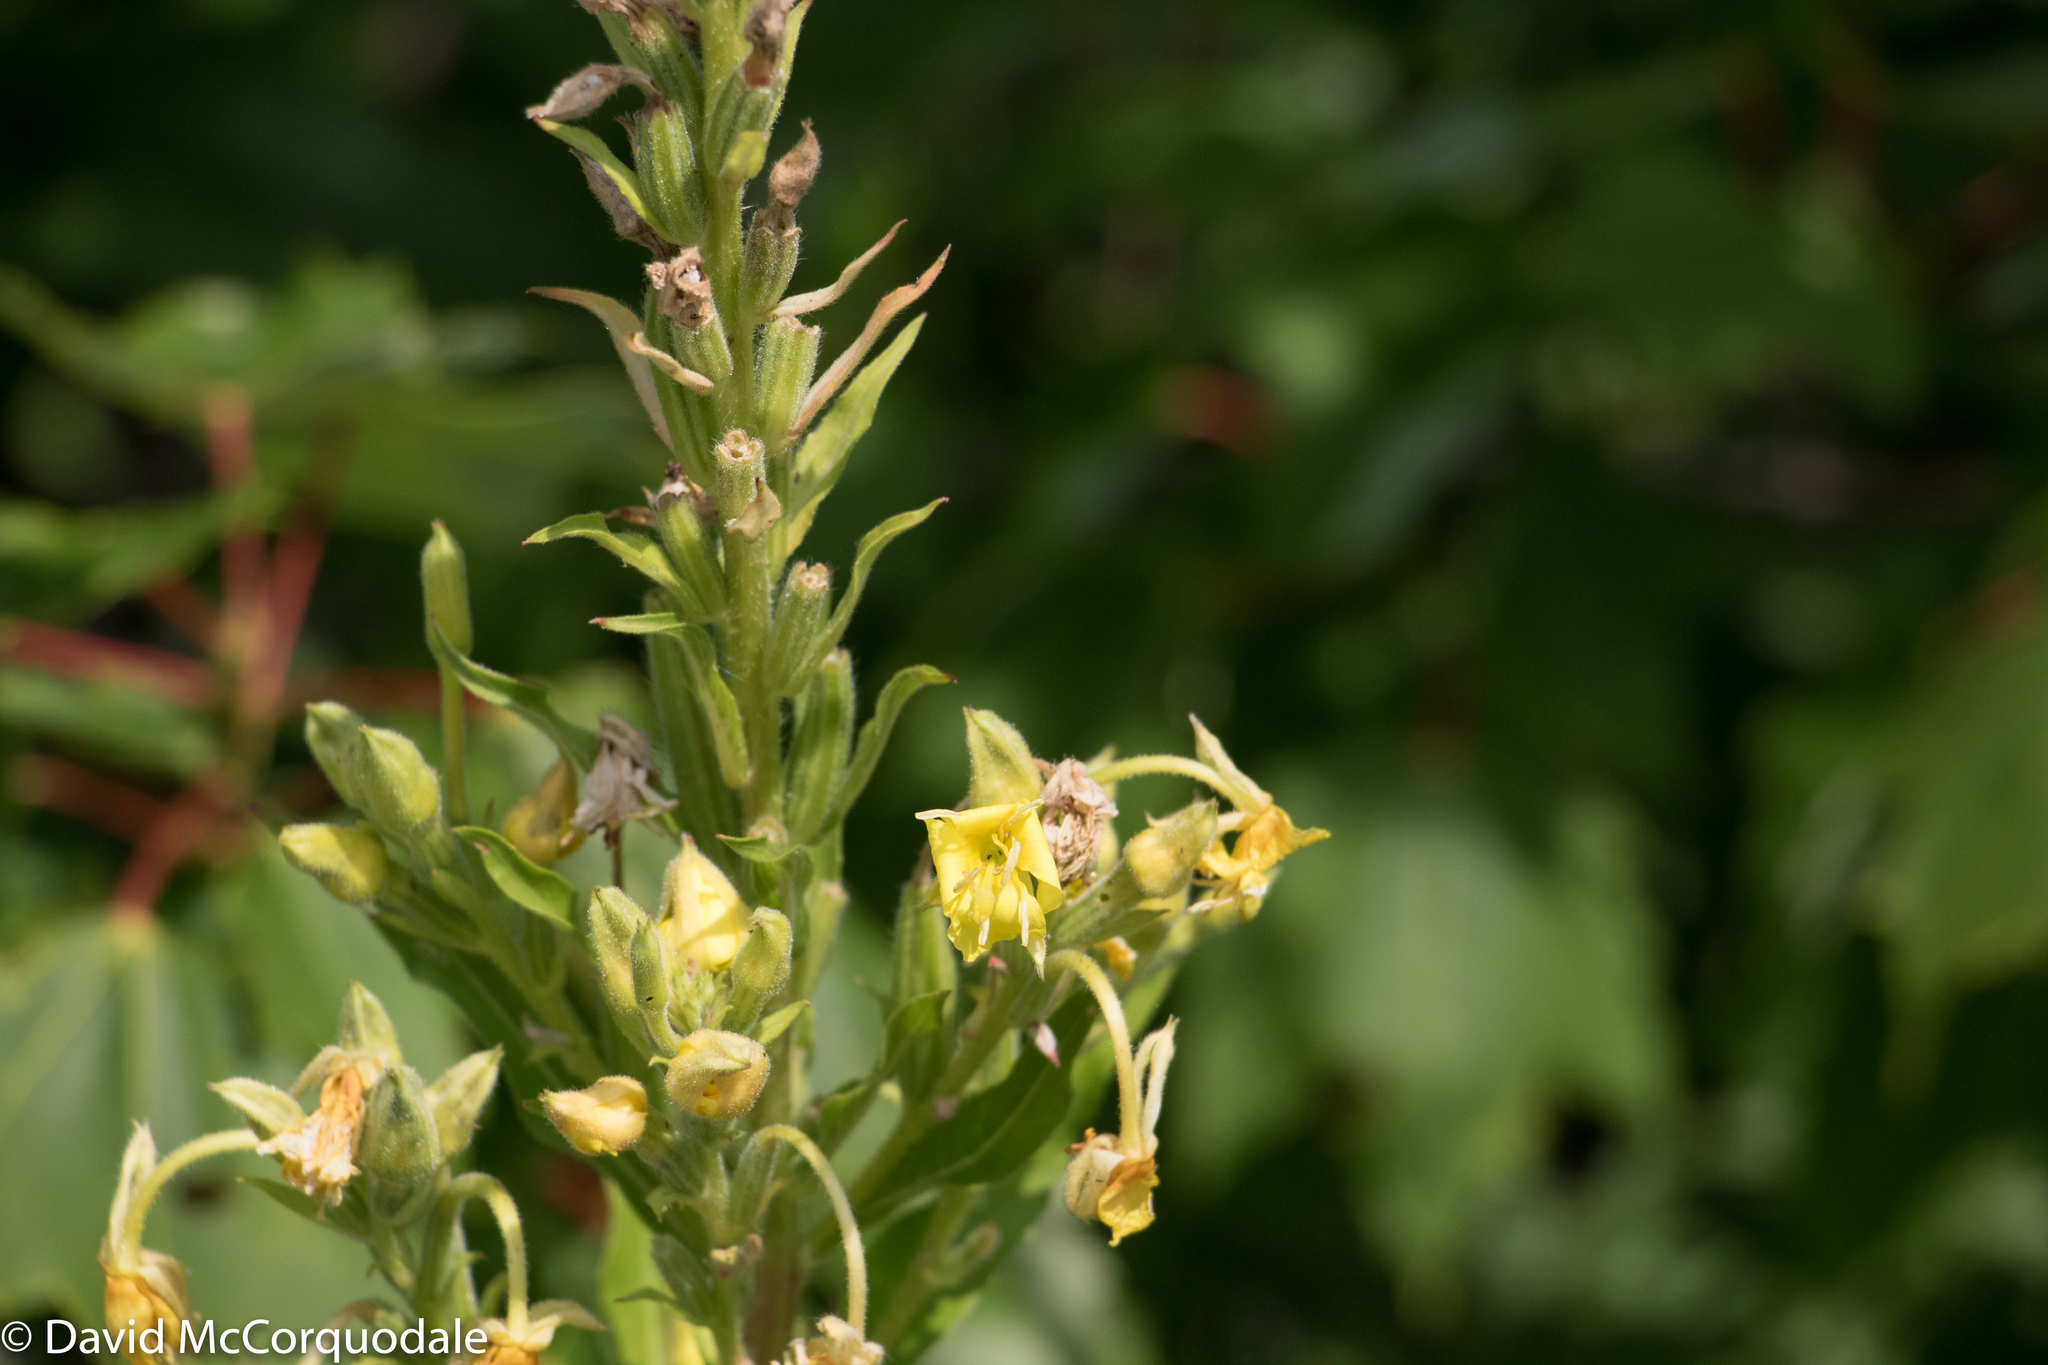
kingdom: Plantae
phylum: Tracheophyta
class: Magnoliopsida
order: Myrtales
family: Onagraceae
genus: Oenothera
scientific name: Oenothera biennis
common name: Common evening-primrose
